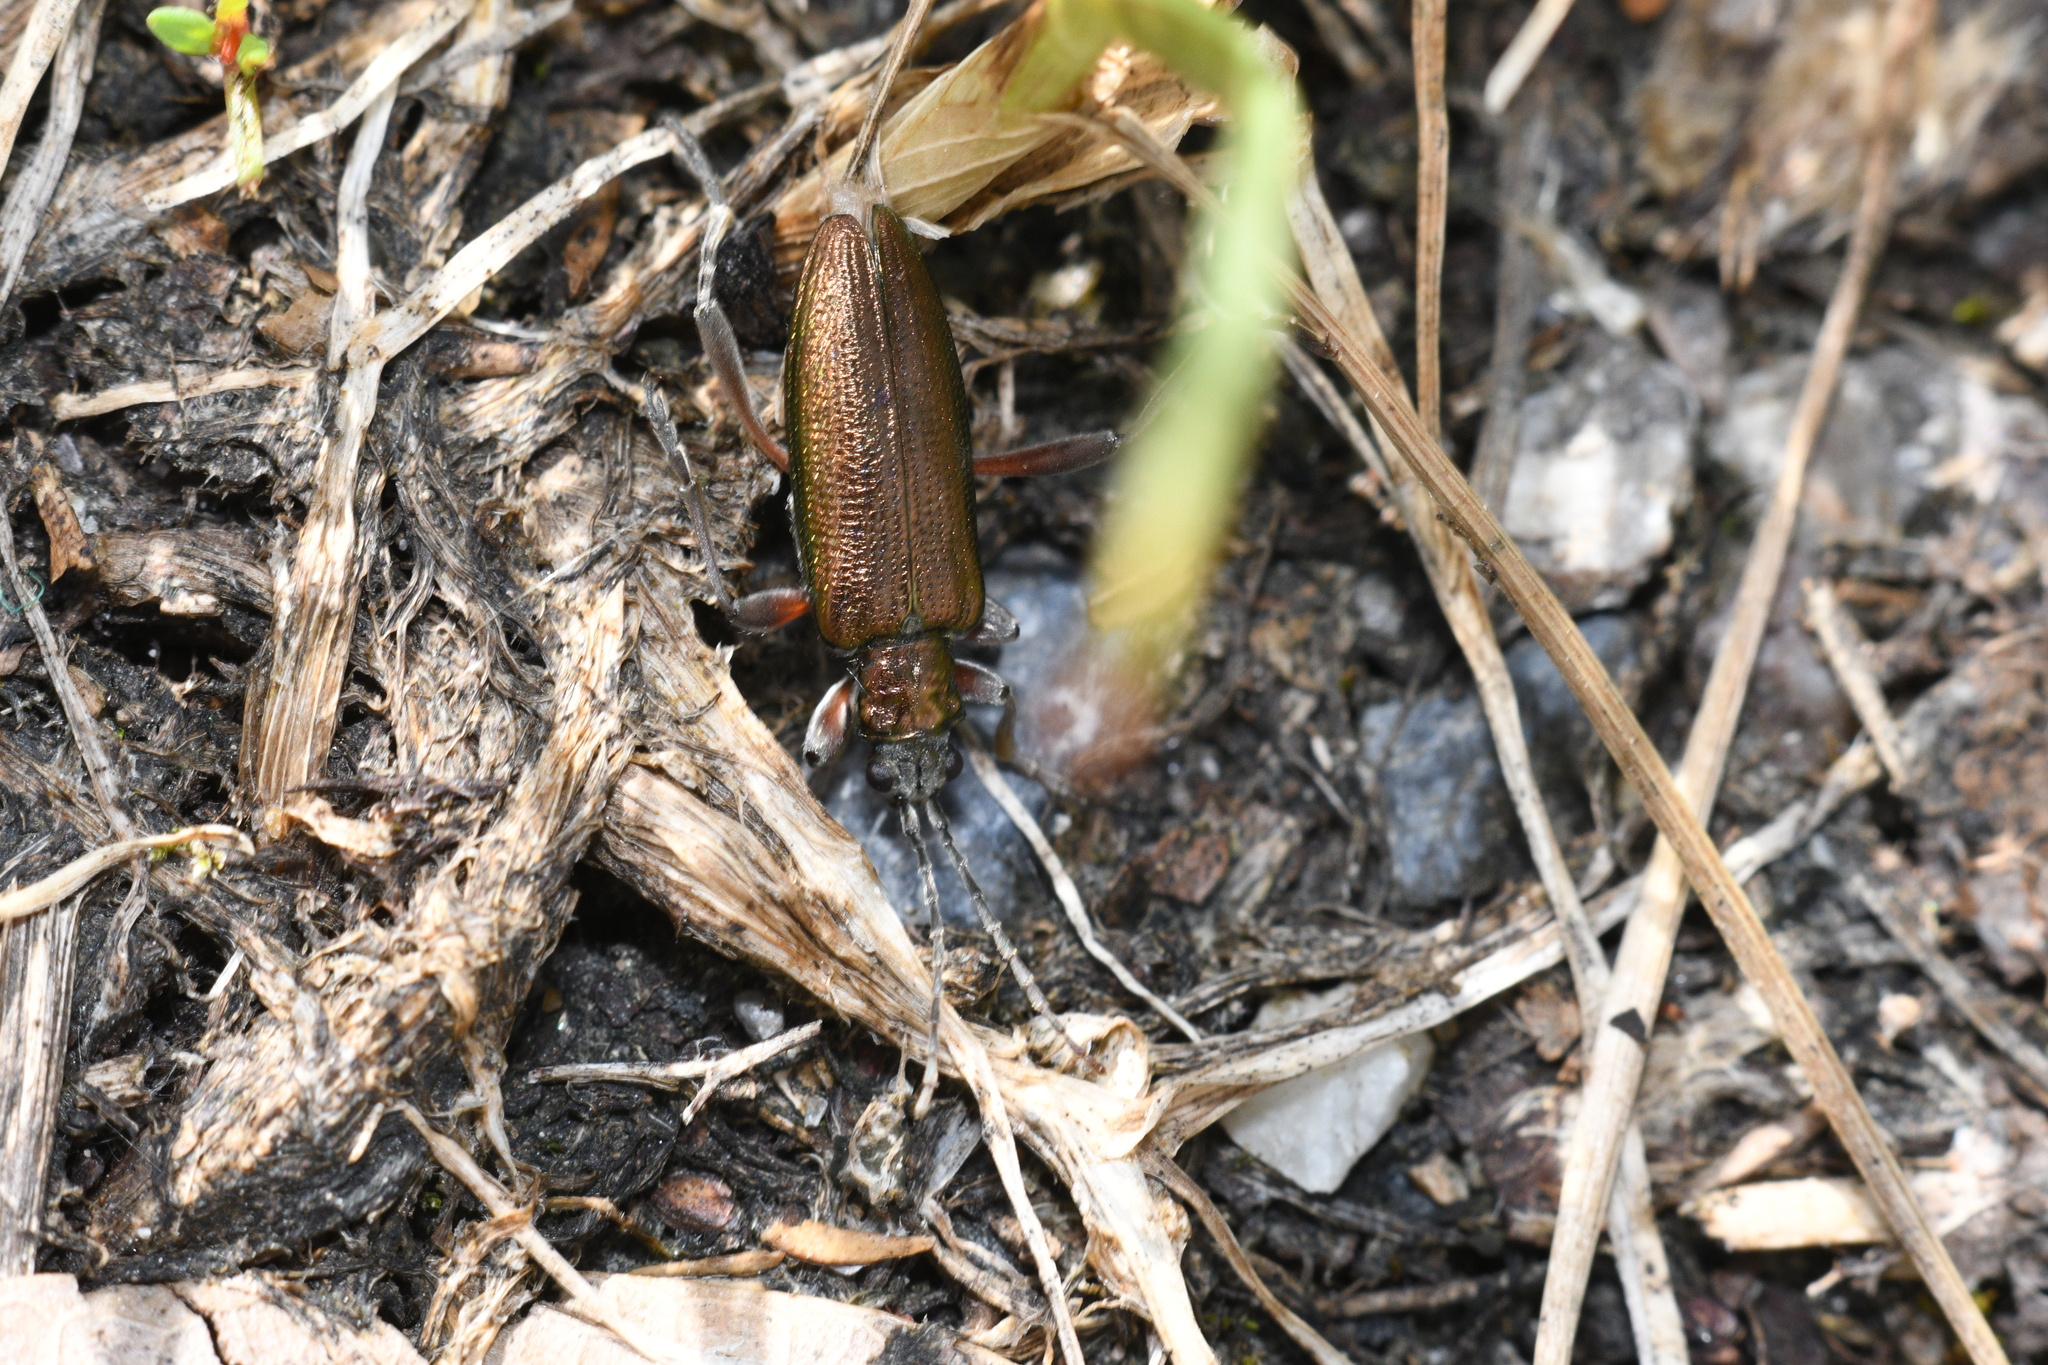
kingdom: Animalia
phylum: Arthropoda
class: Insecta
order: Coleoptera
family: Chrysomelidae
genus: Donacia
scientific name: Donacia clavipes
